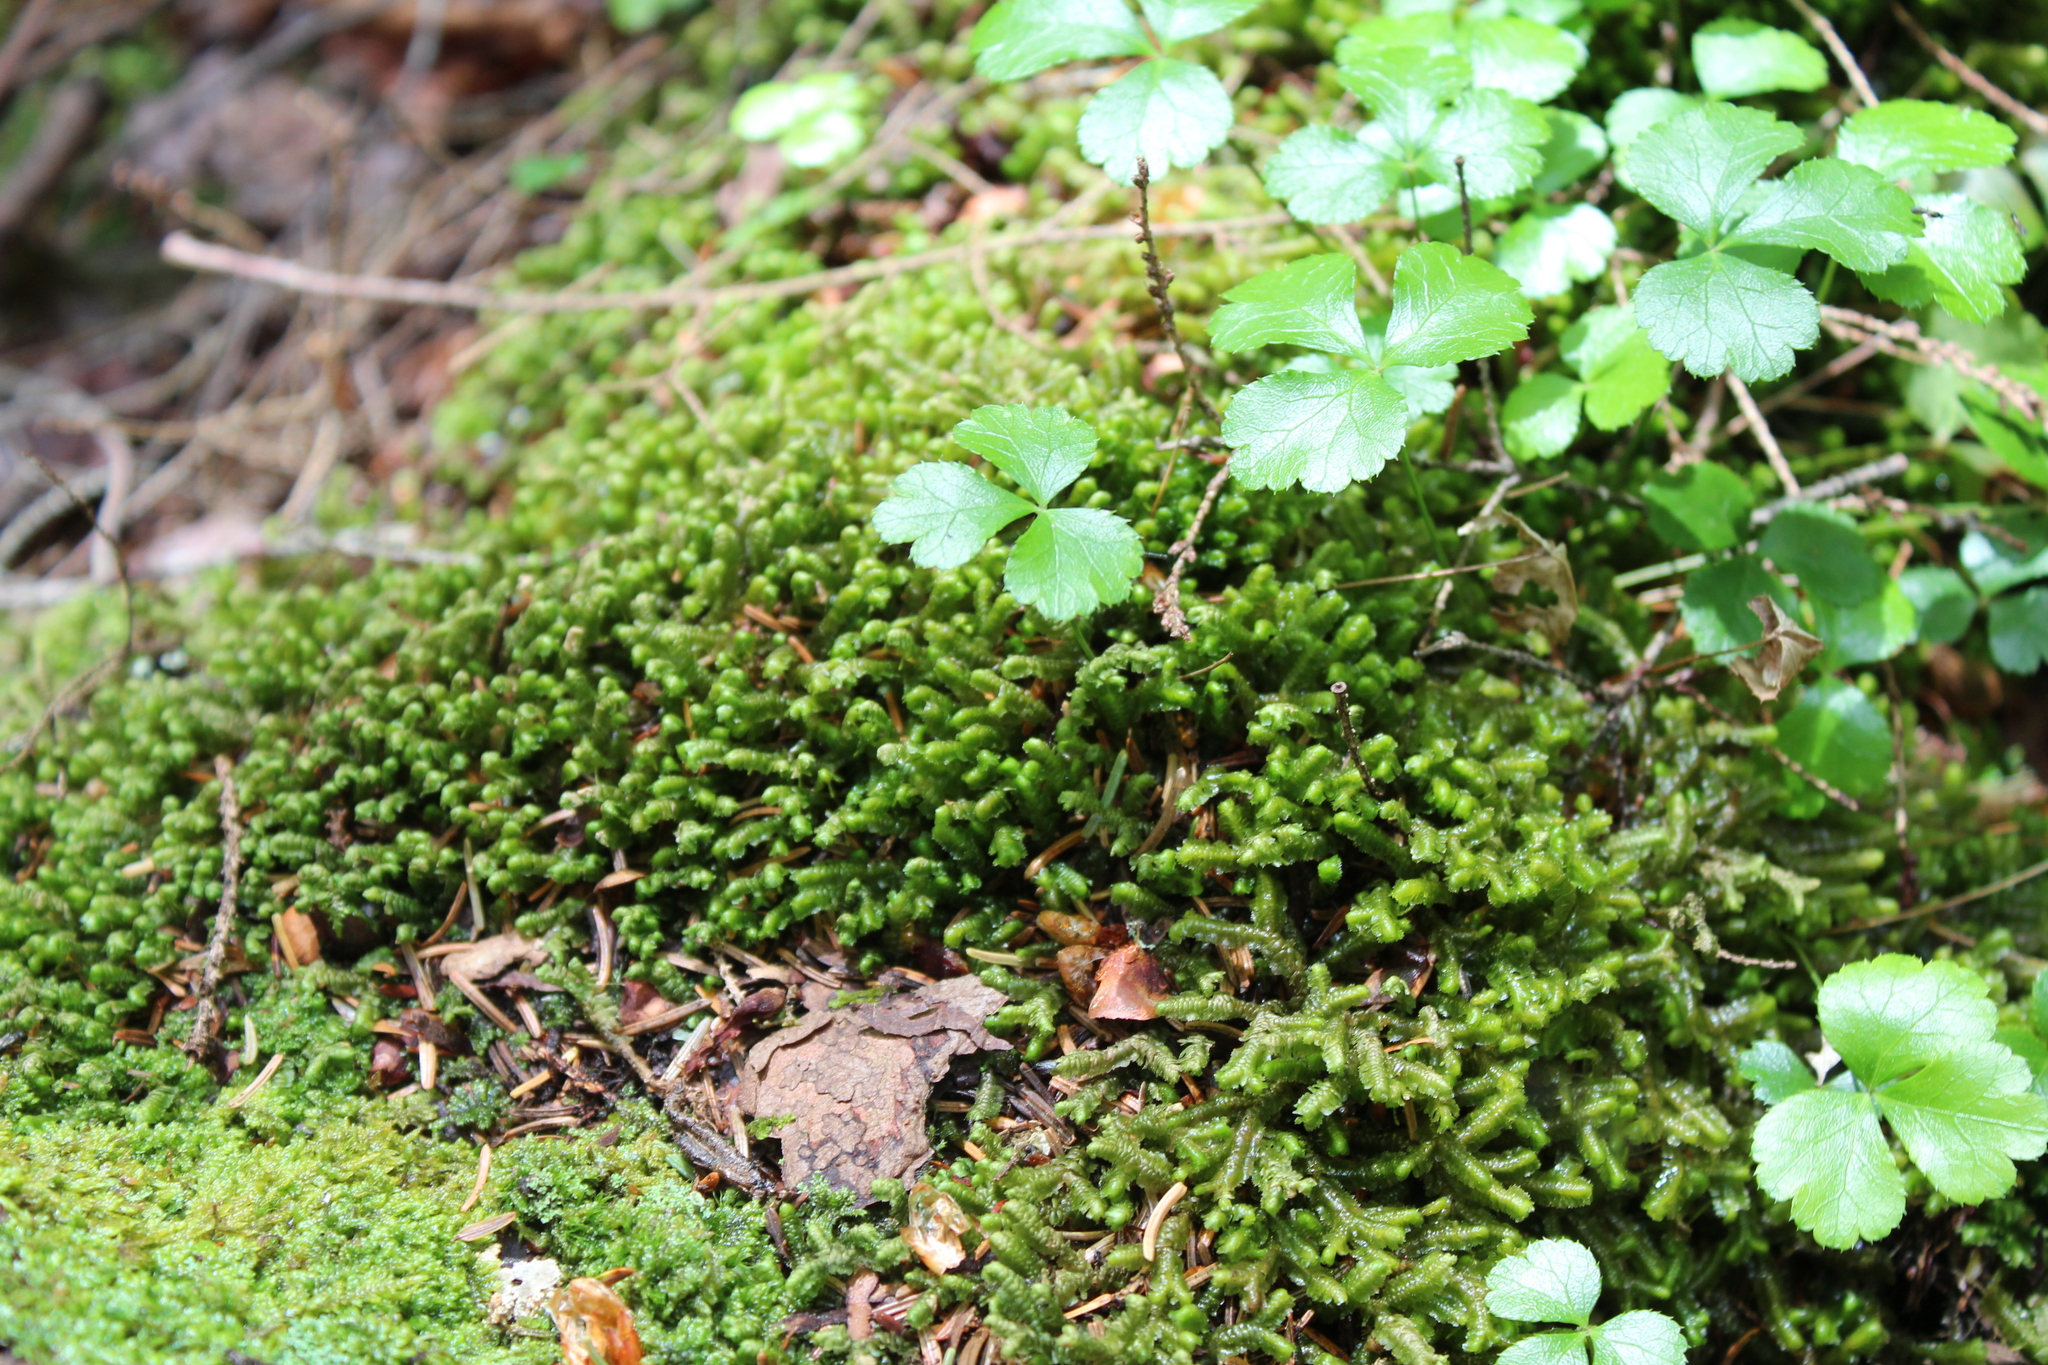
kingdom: Plantae
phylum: Marchantiophyta
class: Jungermanniopsida
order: Jungermanniales
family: Lepidoziaceae
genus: Bazzania
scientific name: Bazzania trilobata
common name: Three-lobed whipwort
